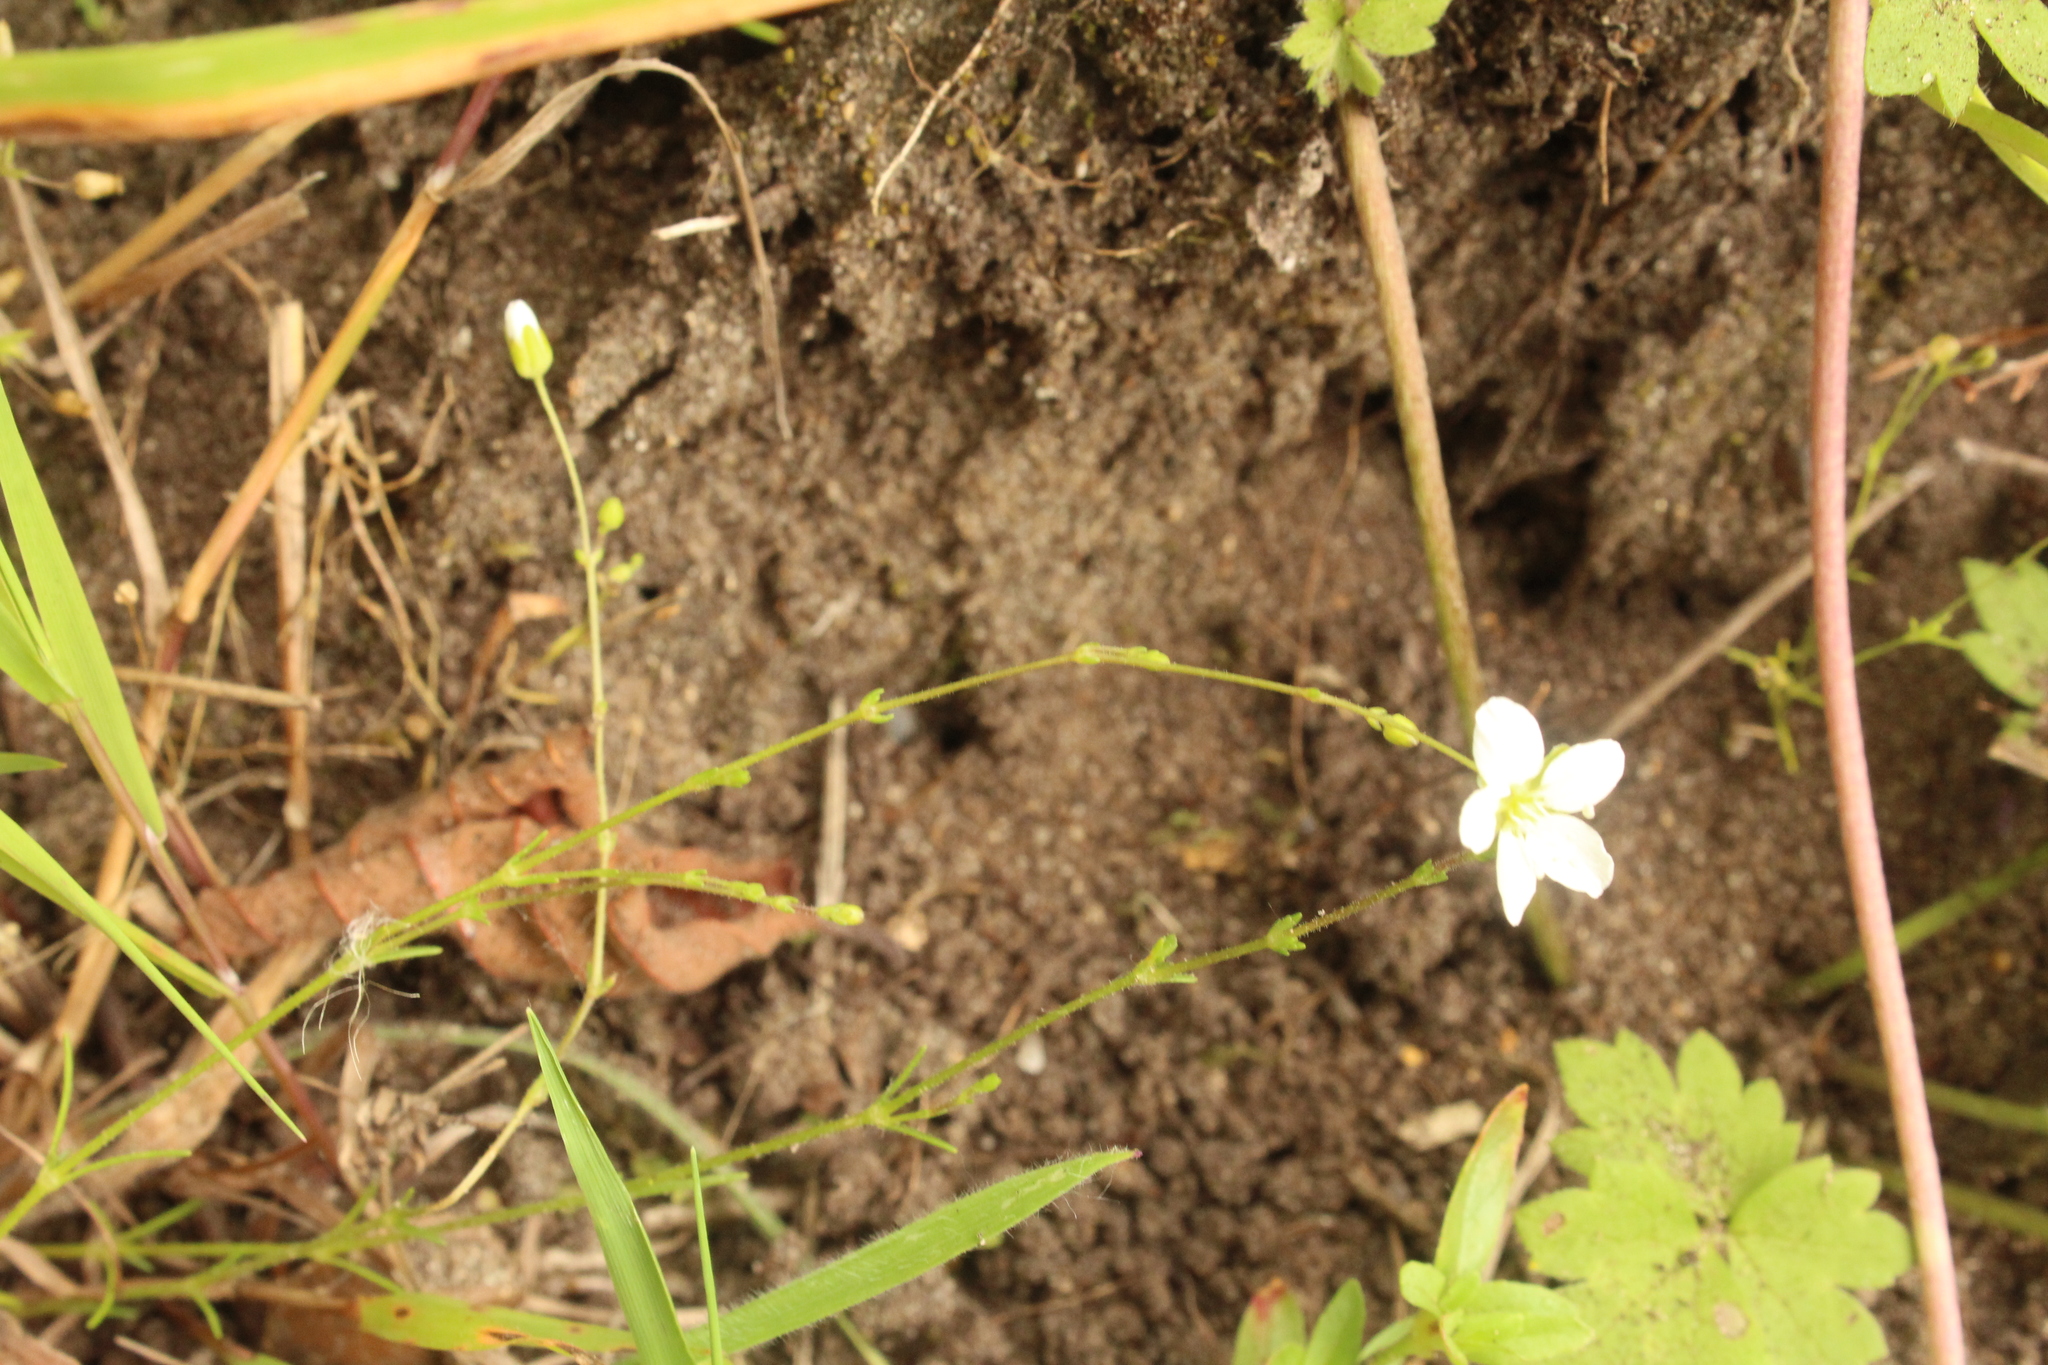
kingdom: Plantae
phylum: Tracheophyta
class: Magnoliopsida
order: Caryophyllales
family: Caryophyllaceae
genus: Sagina
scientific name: Sagina nodosa
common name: Knotted pearlwort
